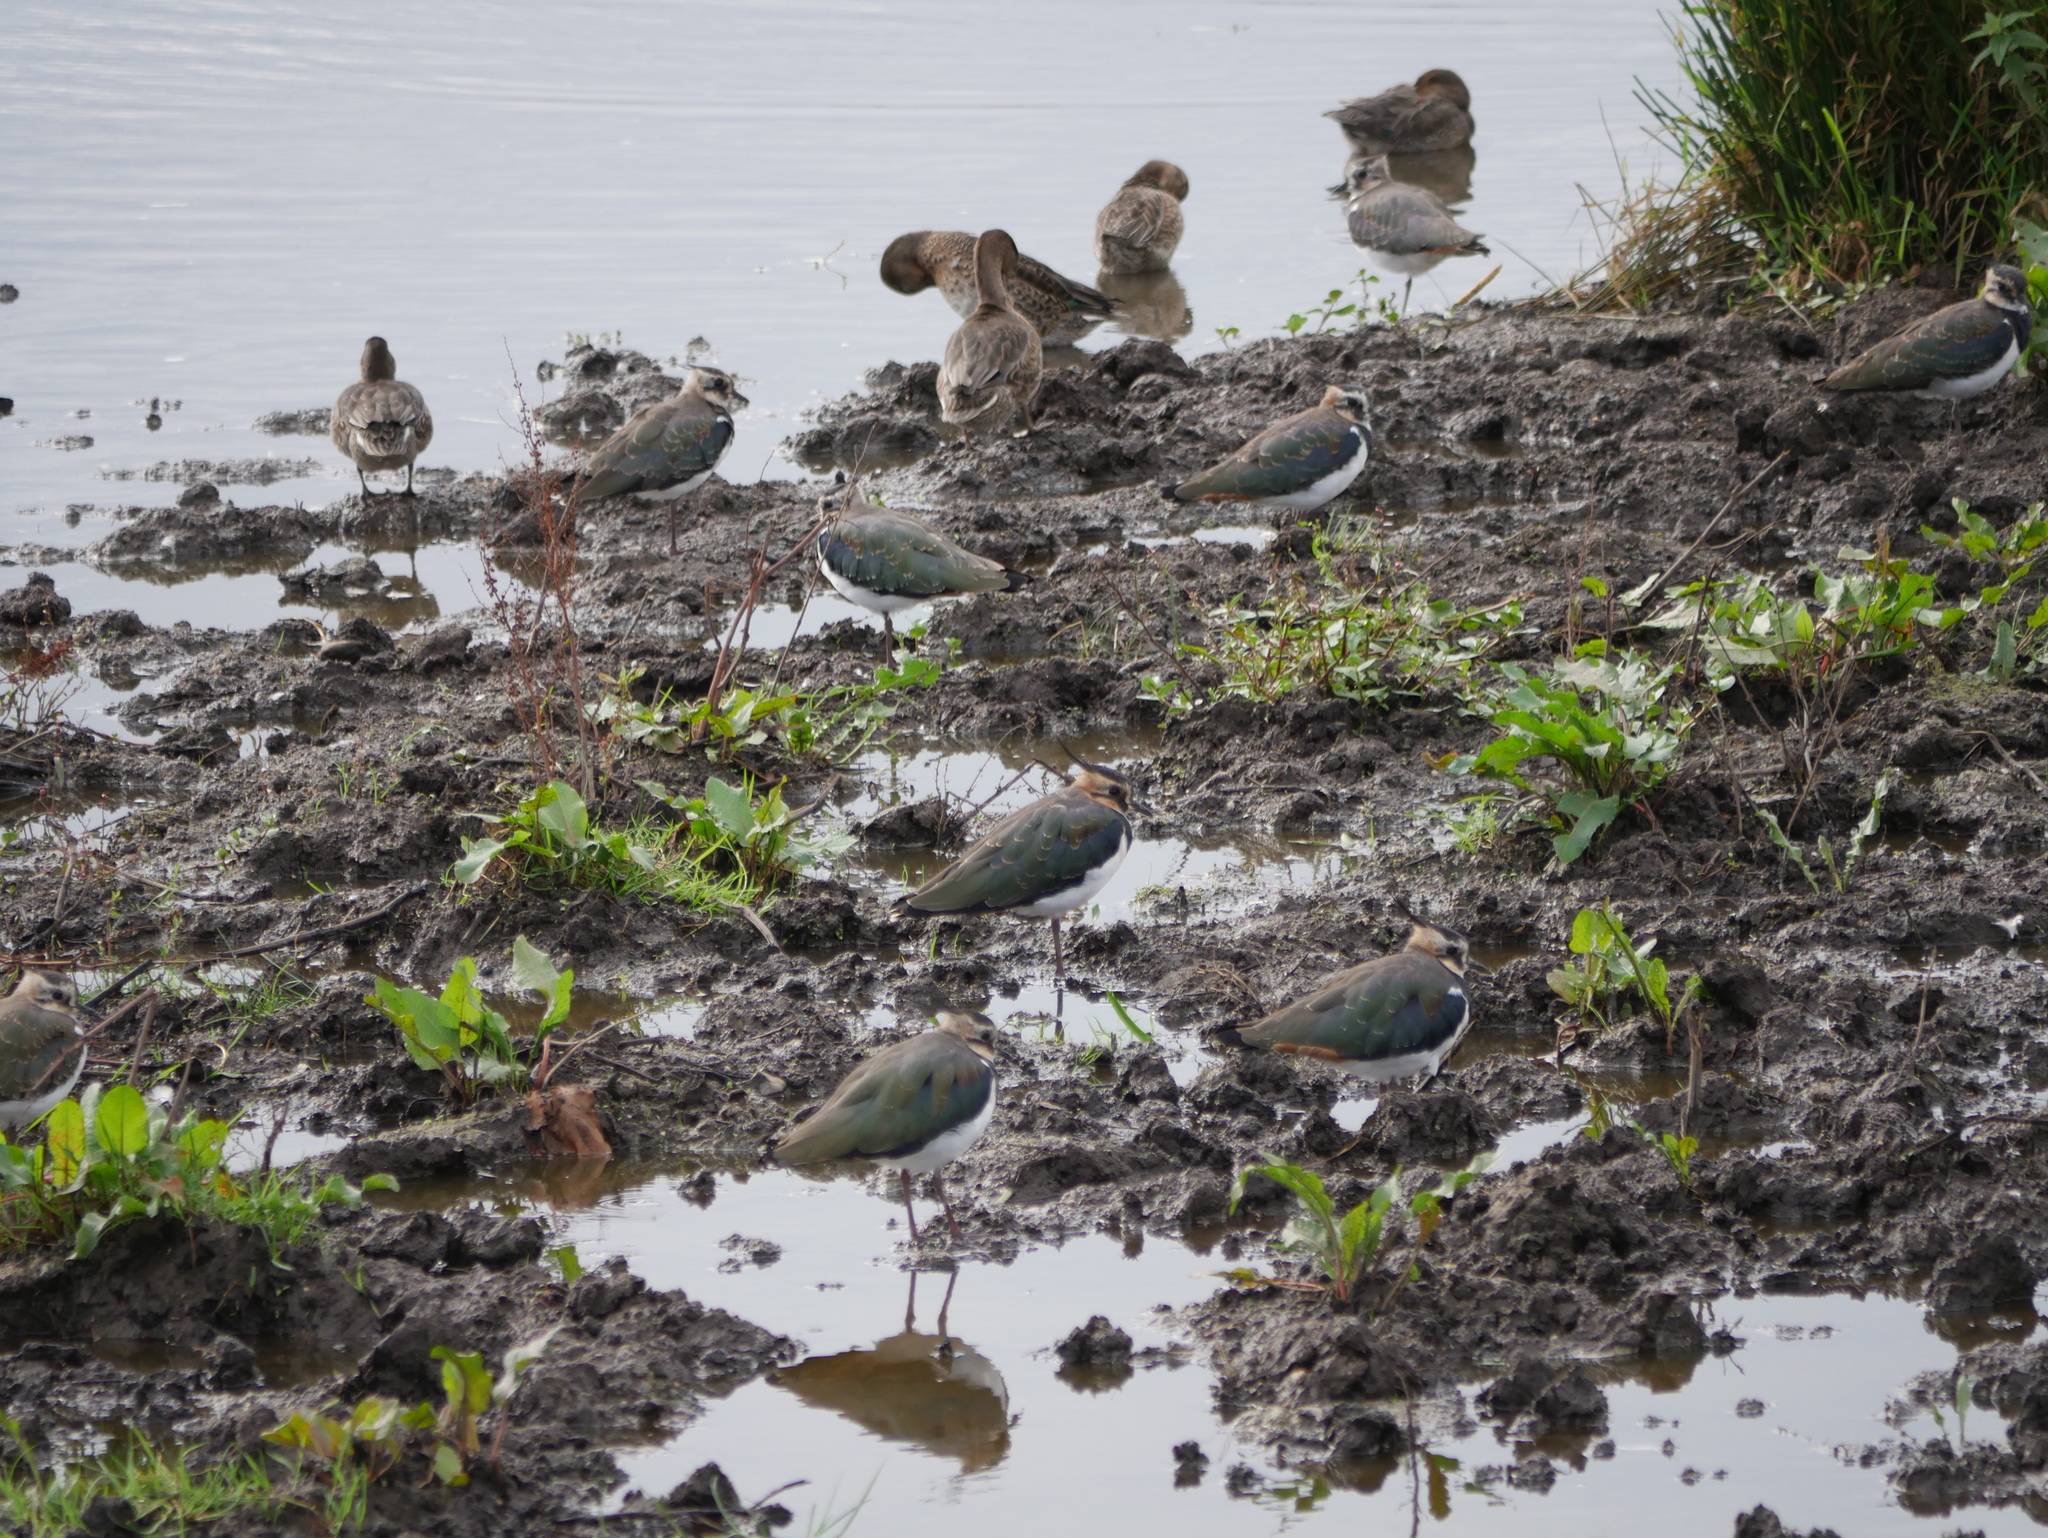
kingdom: Animalia
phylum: Chordata
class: Aves
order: Charadriiformes
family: Charadriidae
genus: Vanellus
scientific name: Vanellus vanellus
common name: Northern lapwing
